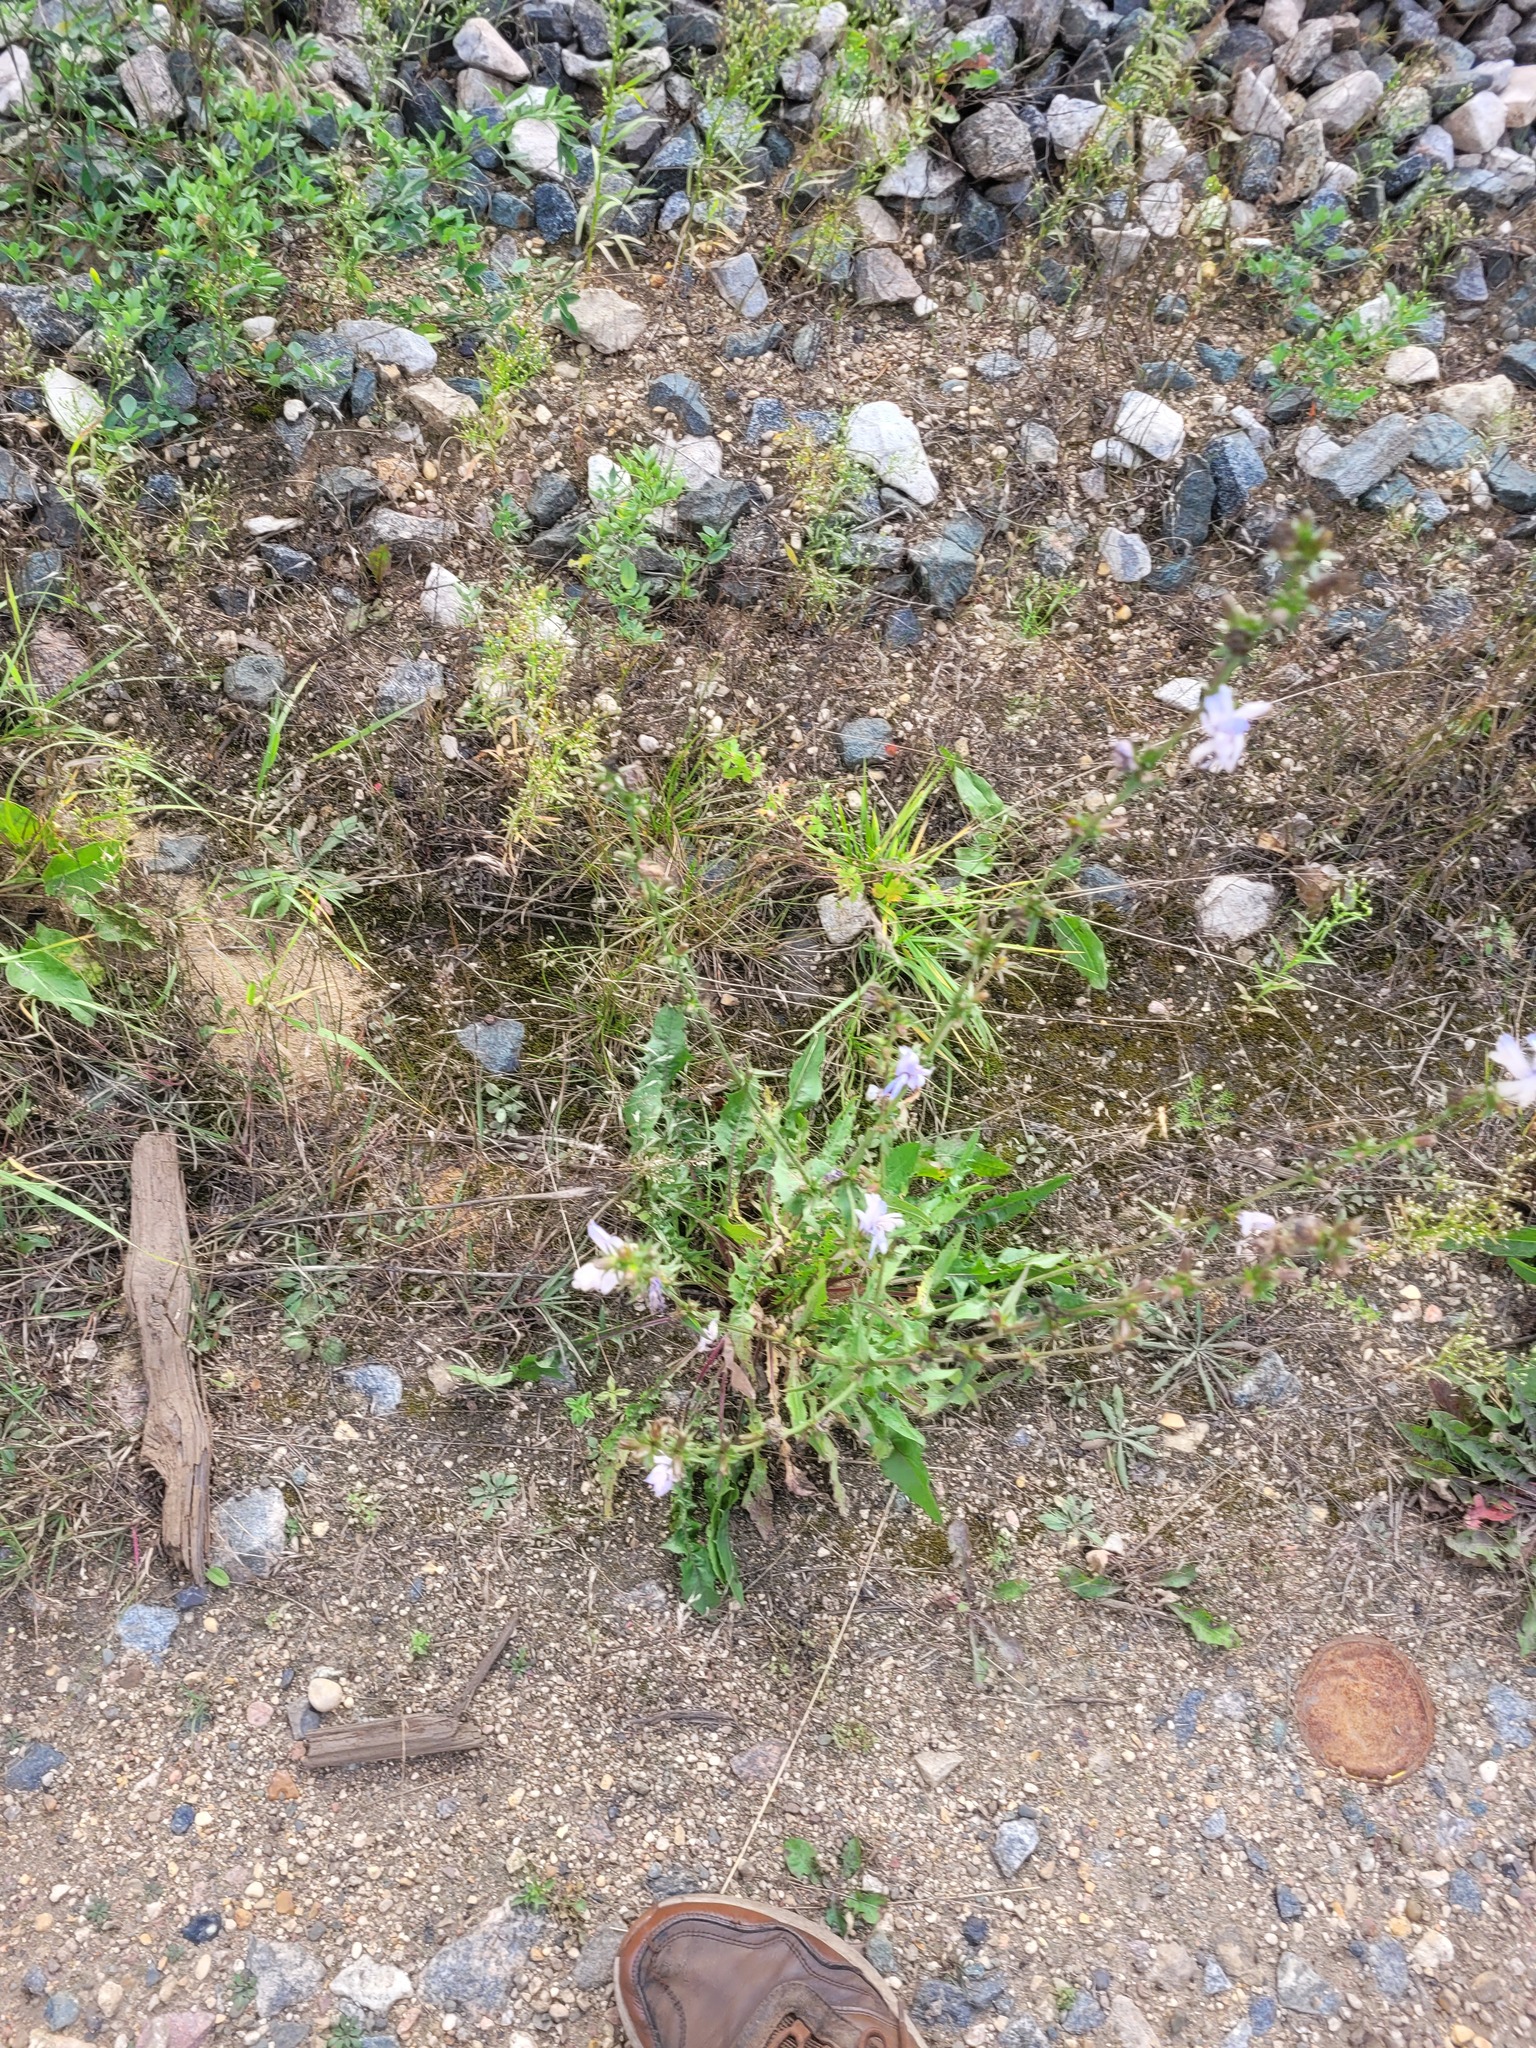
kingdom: Plantae
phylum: Tracheophyta
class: Magnoliopsida
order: Asterales
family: Asteraceae
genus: Cichorium
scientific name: Cichorium intybus
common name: Chicory
